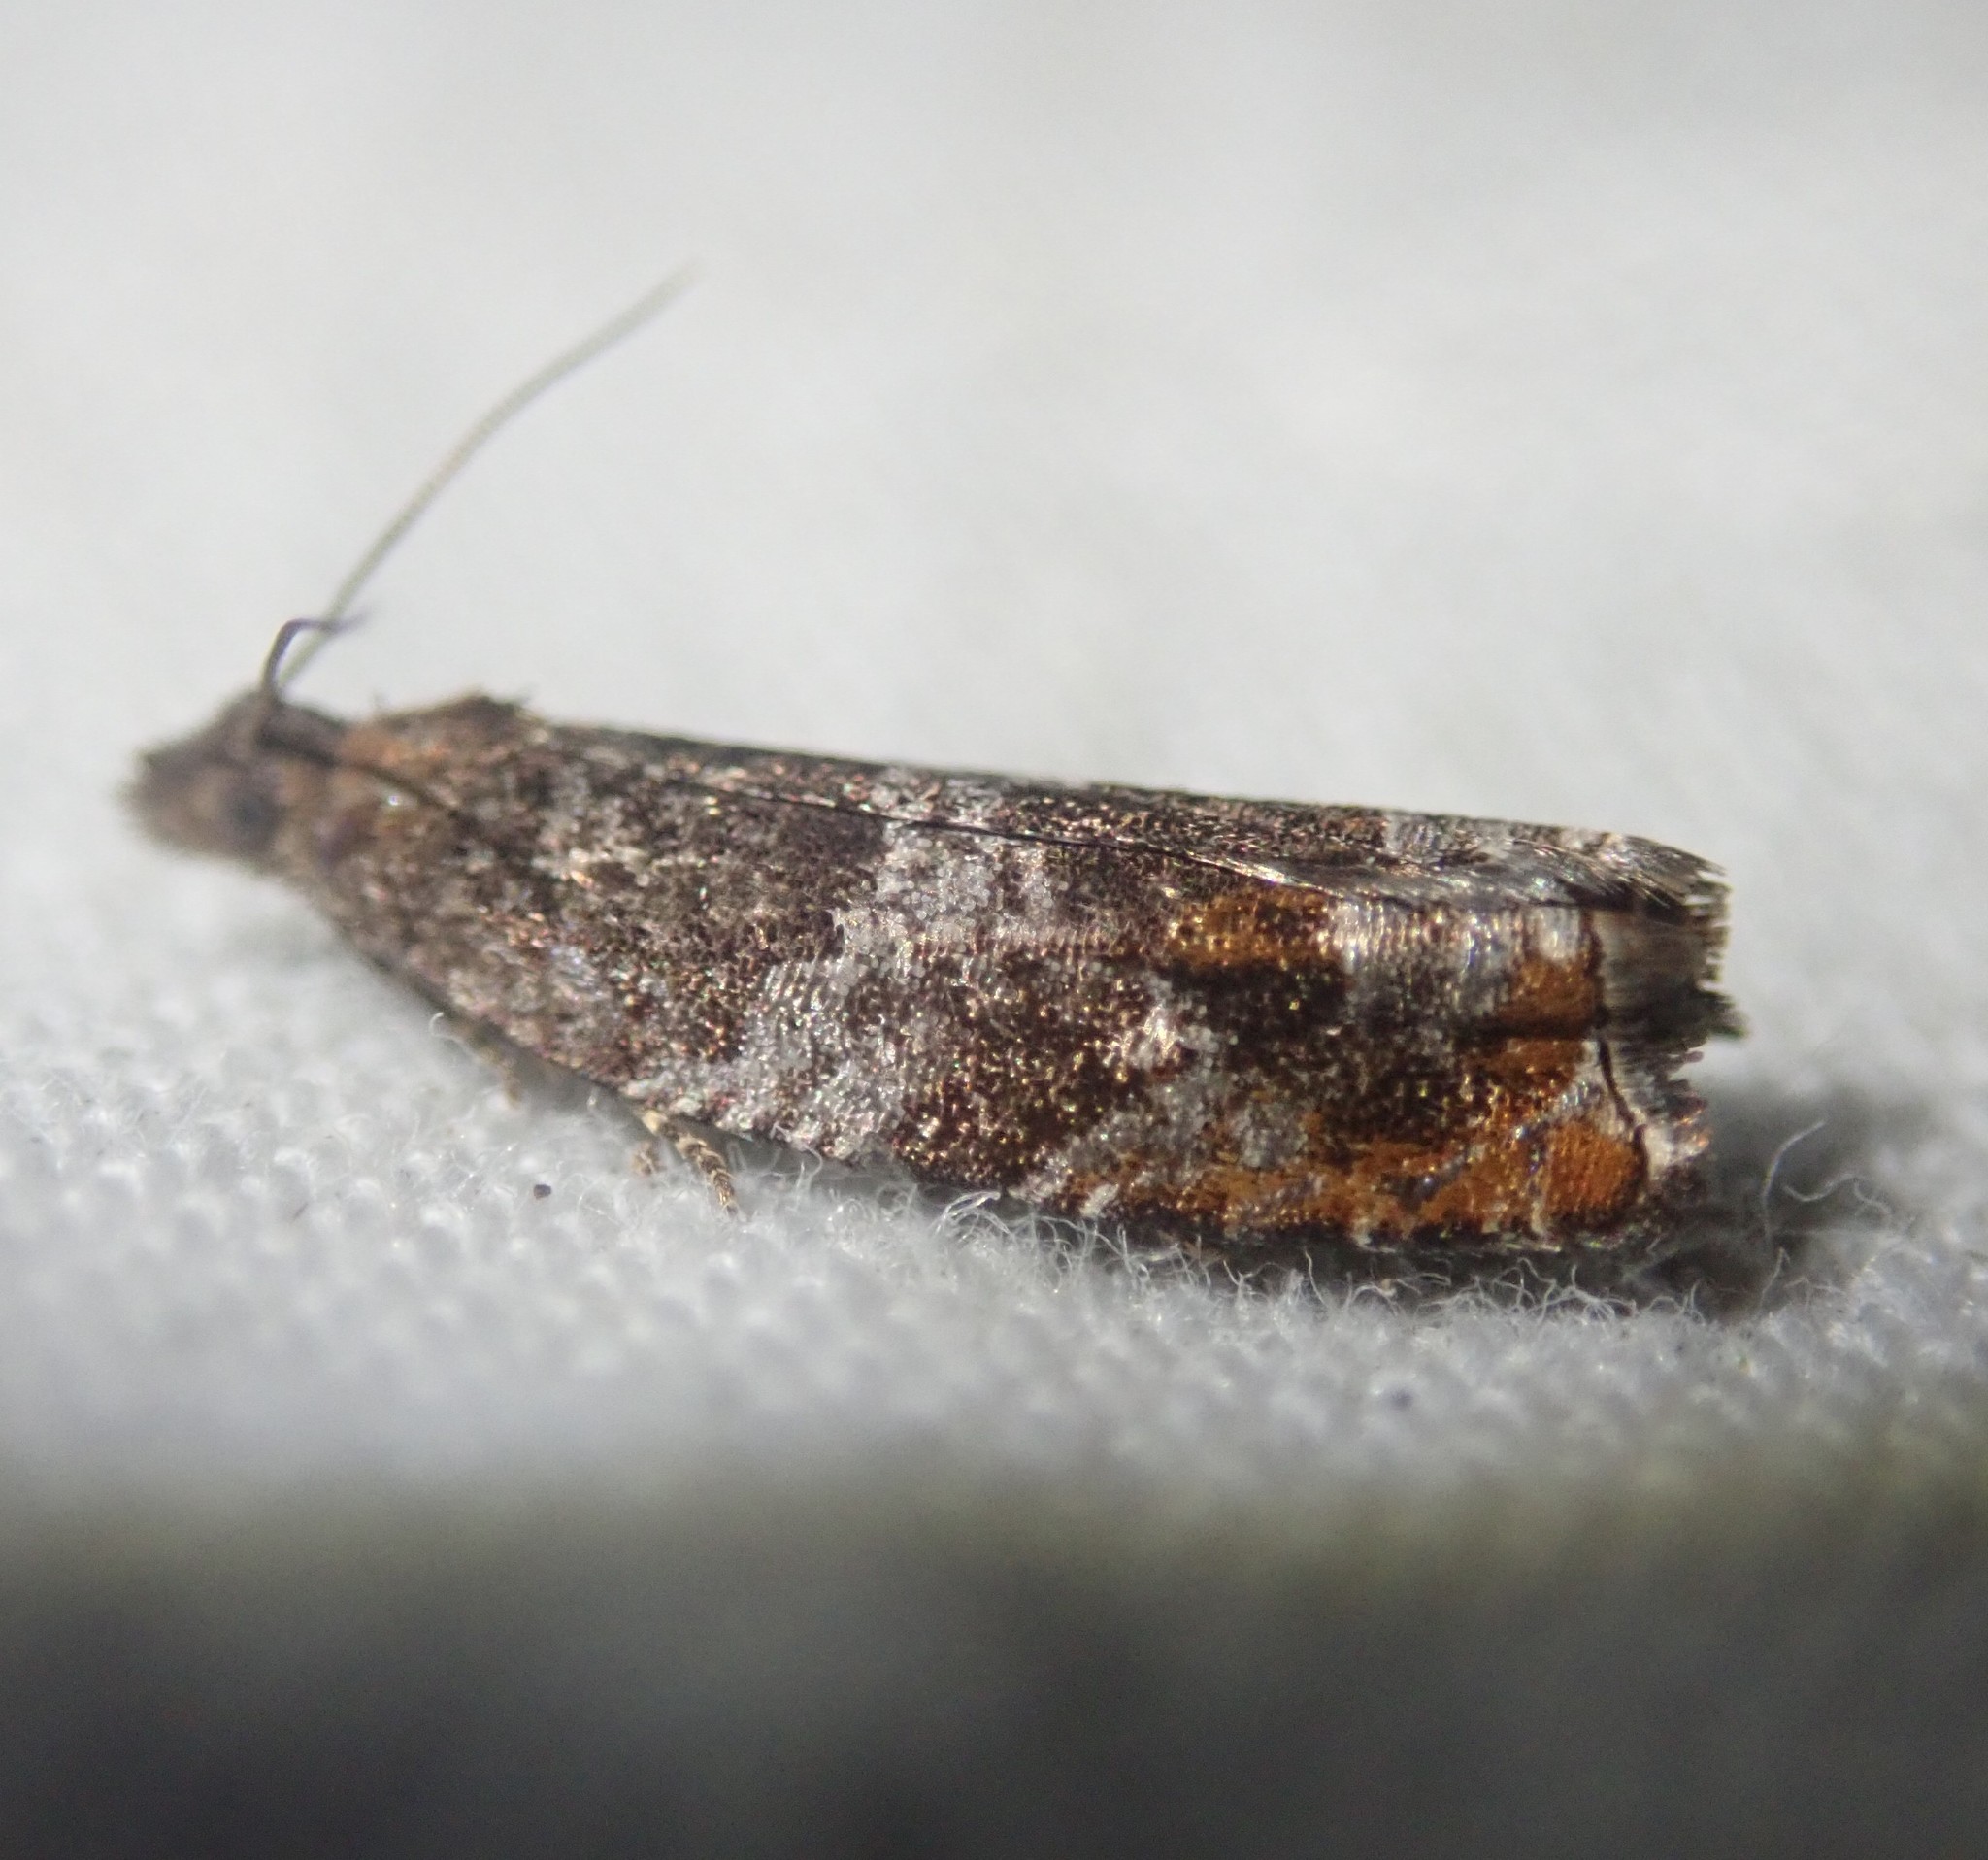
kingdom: Animalia
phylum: Arthropoda
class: Insecta
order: Lepidoptera
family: Tortricidae
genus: Ancylis
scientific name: Ancylis achatana
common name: Triangle-marked roller
